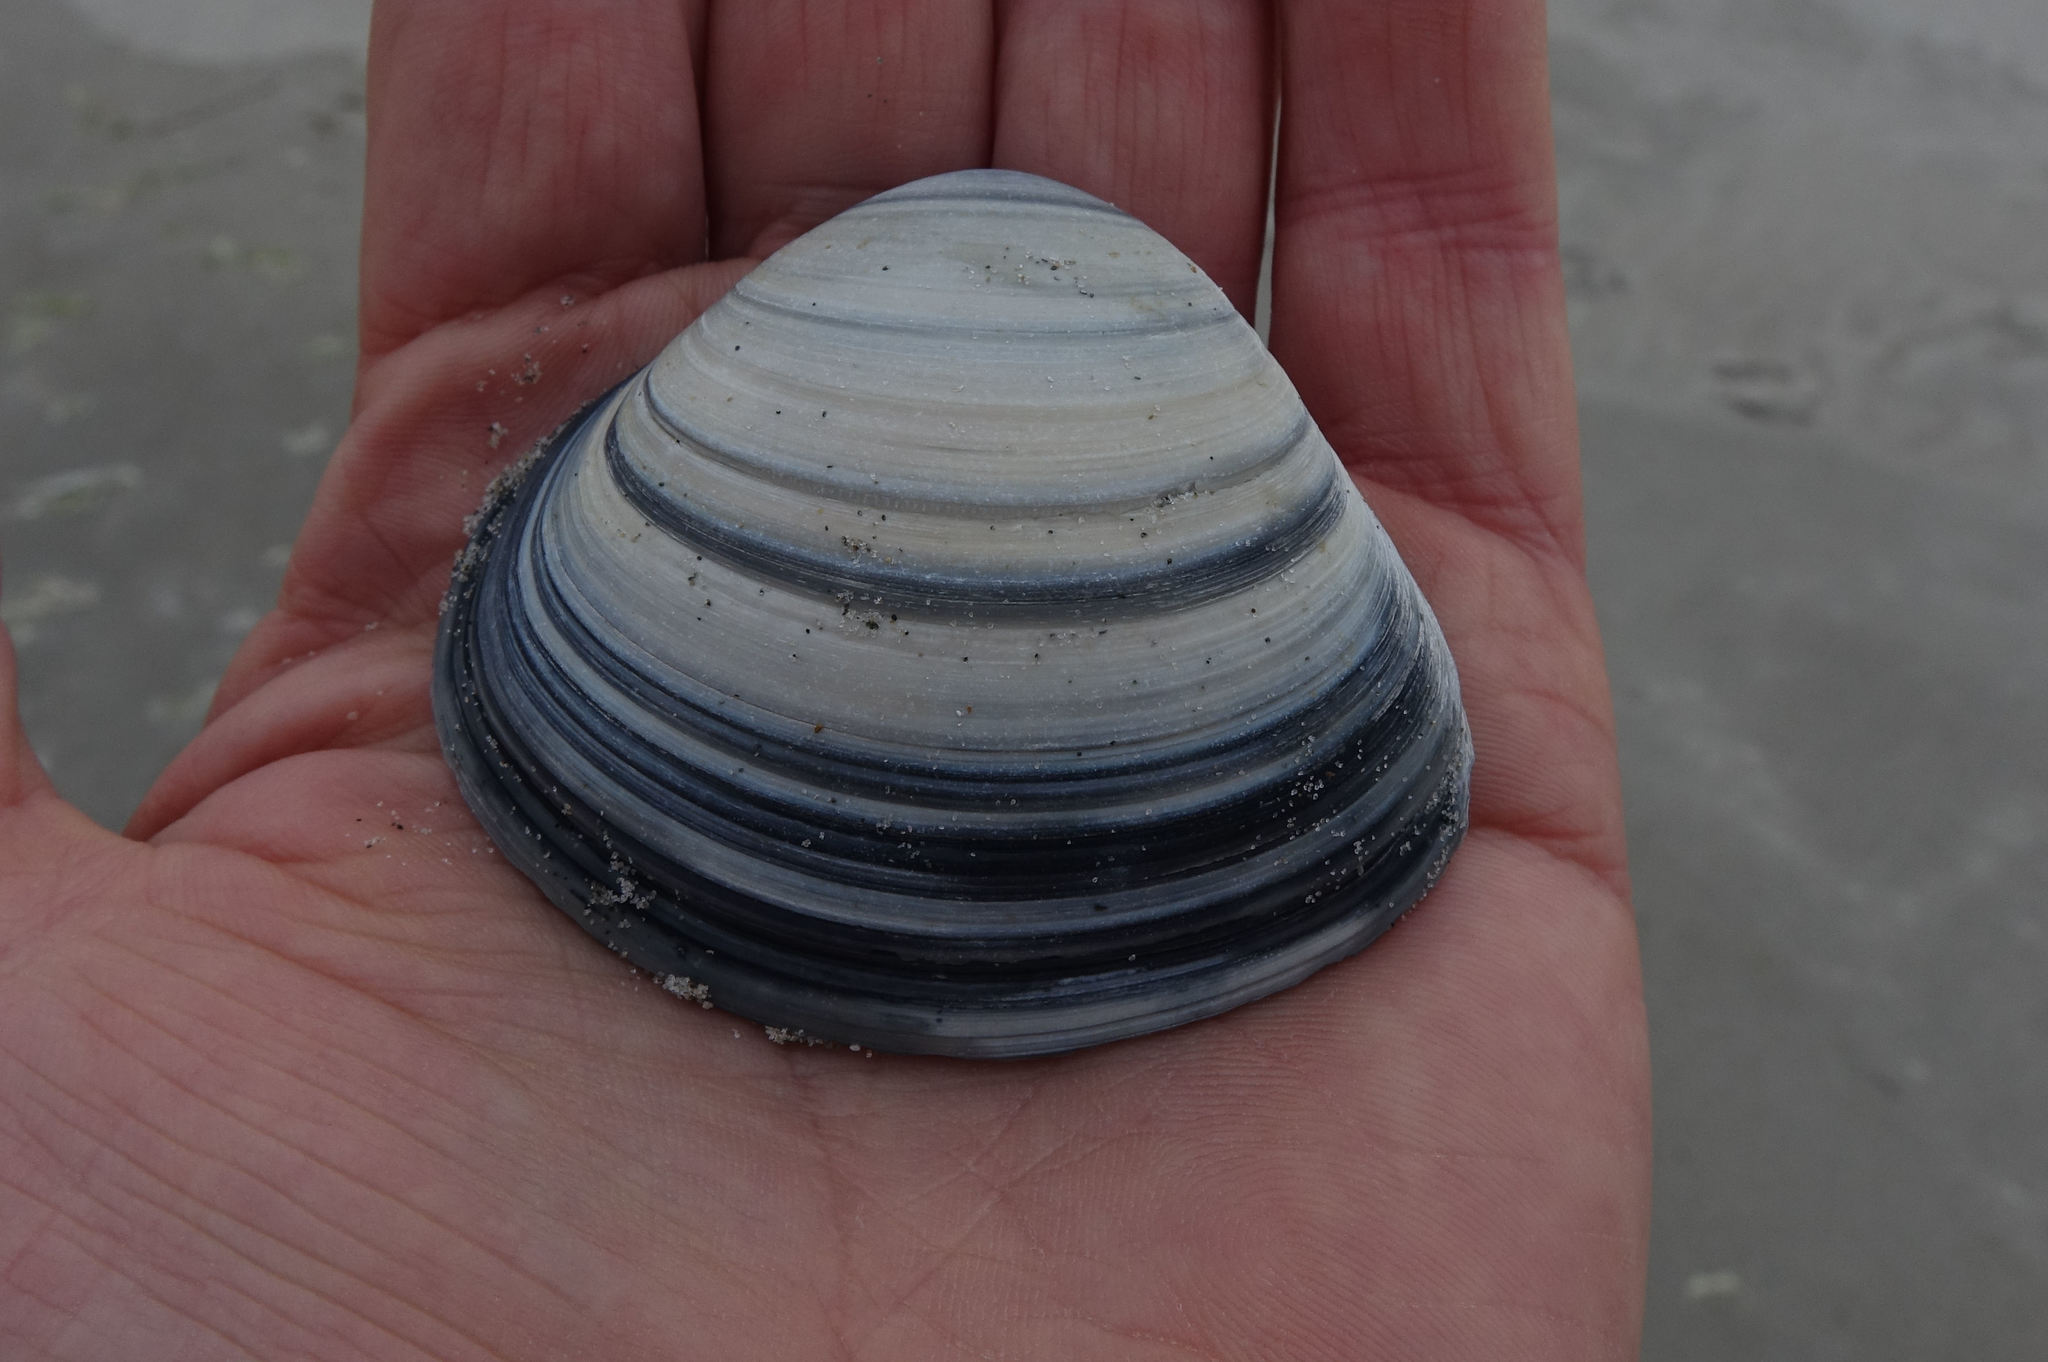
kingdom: Animalia
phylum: Mollusca
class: Bivalvia
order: Venerida
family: Mactridae
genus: Spisula
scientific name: Spisula murchisoni
